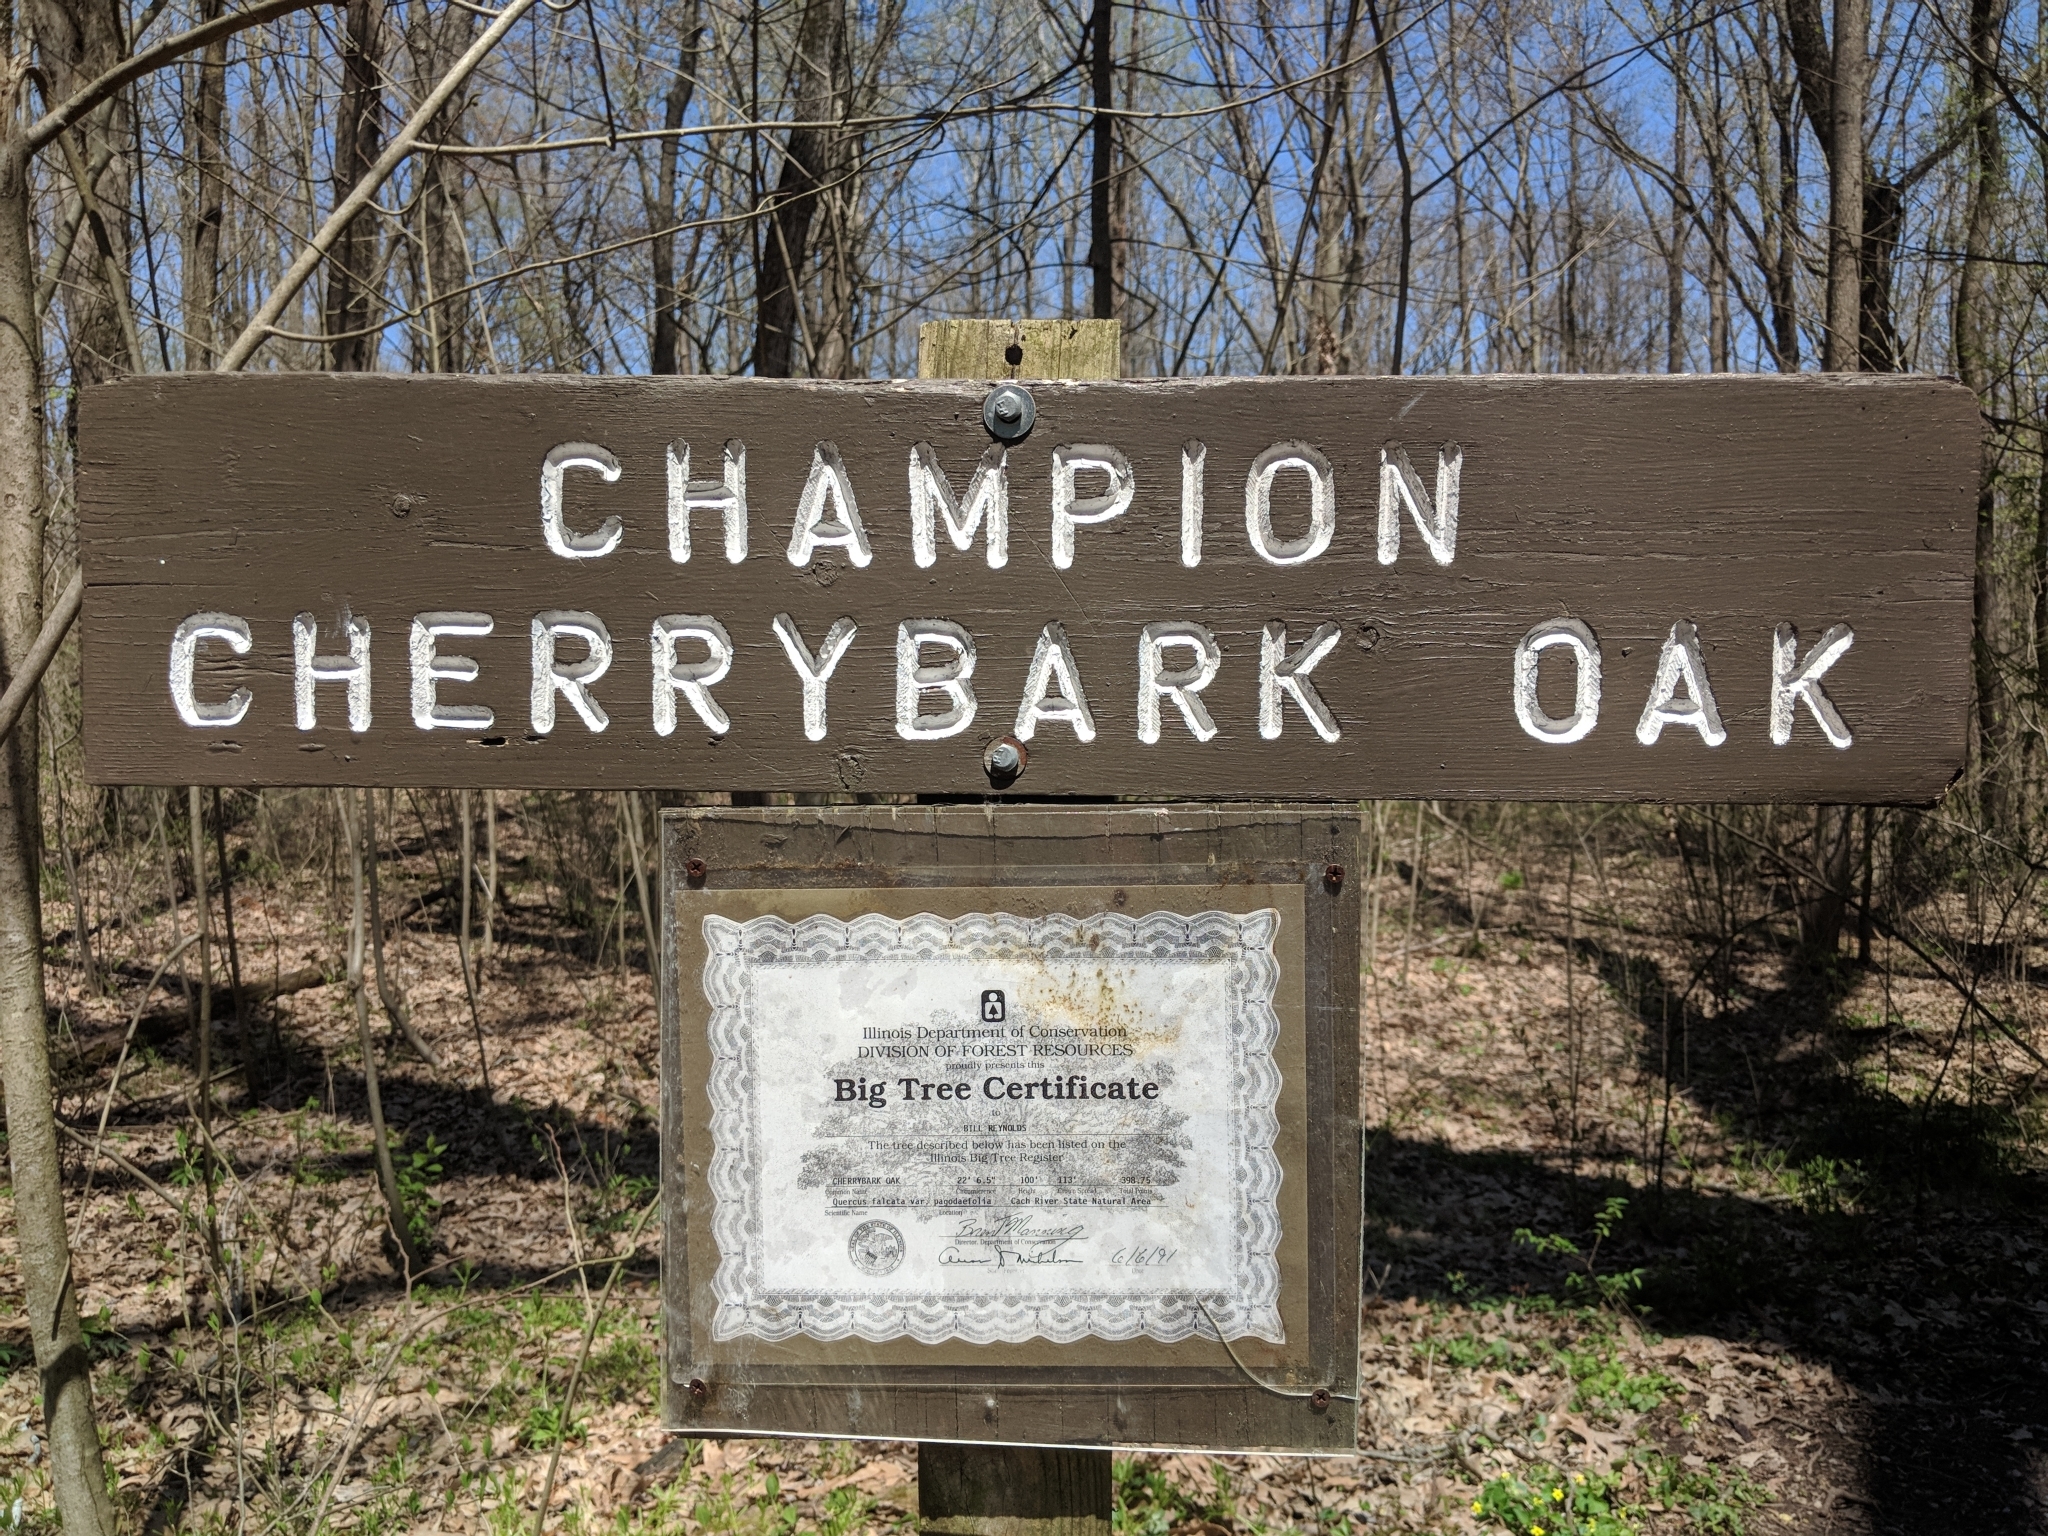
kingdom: Plantae
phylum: Tracheophyta
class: Magnoliopsida
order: Fagales
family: Fagaceae
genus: Quercus
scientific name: Quercus pagoda
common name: Cherrybark oak
